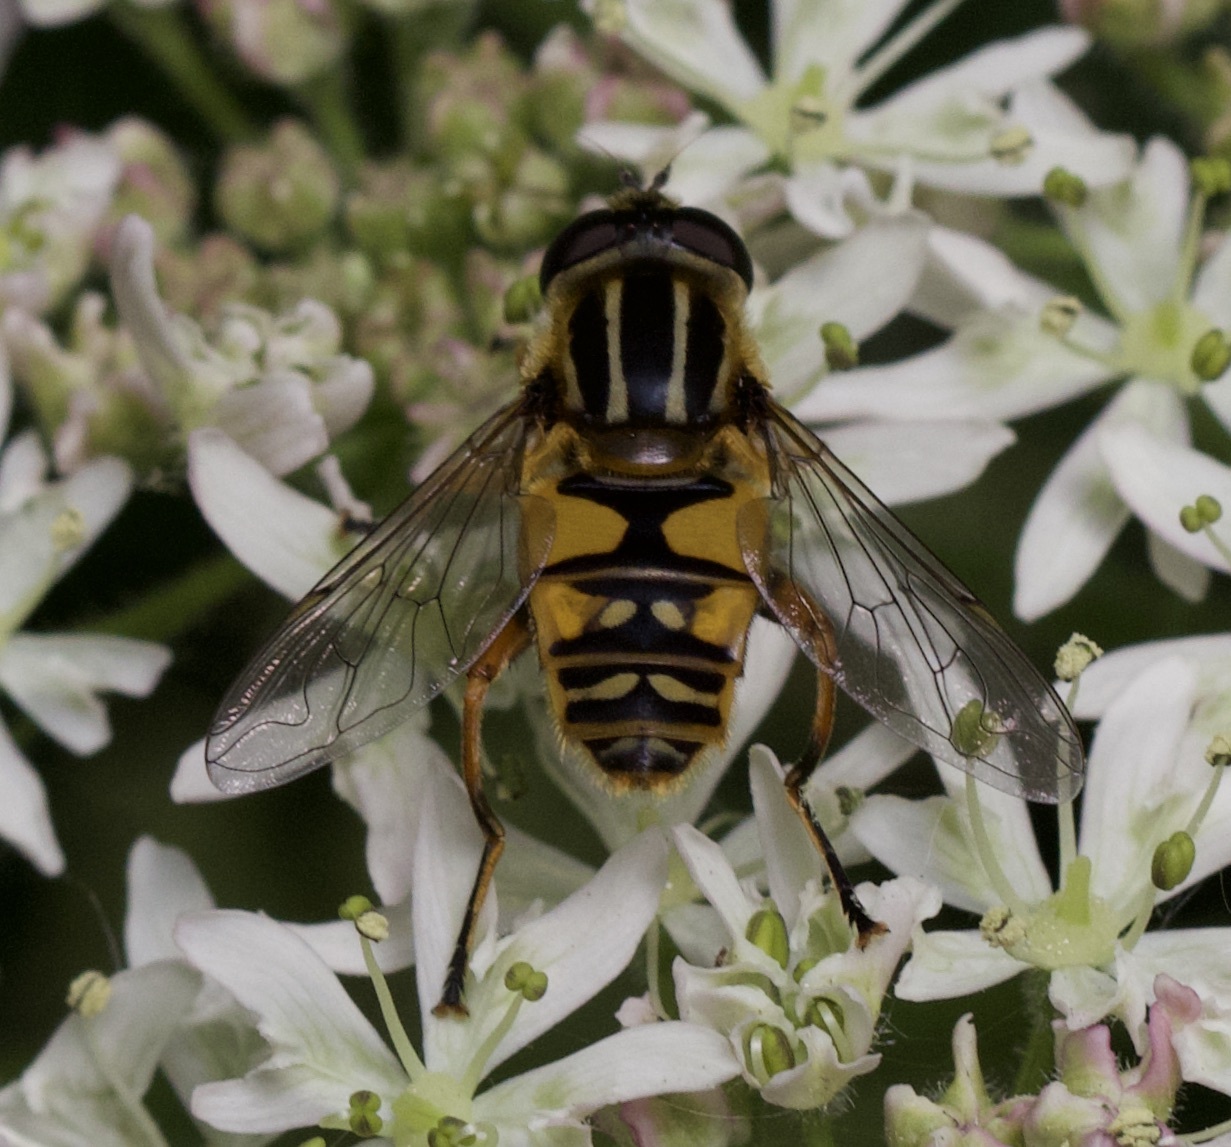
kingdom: Animalia
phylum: Arthropoda
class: Insecta
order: Diptera
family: Syrphidae
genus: Helophilus
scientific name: Helophilus pendulus
